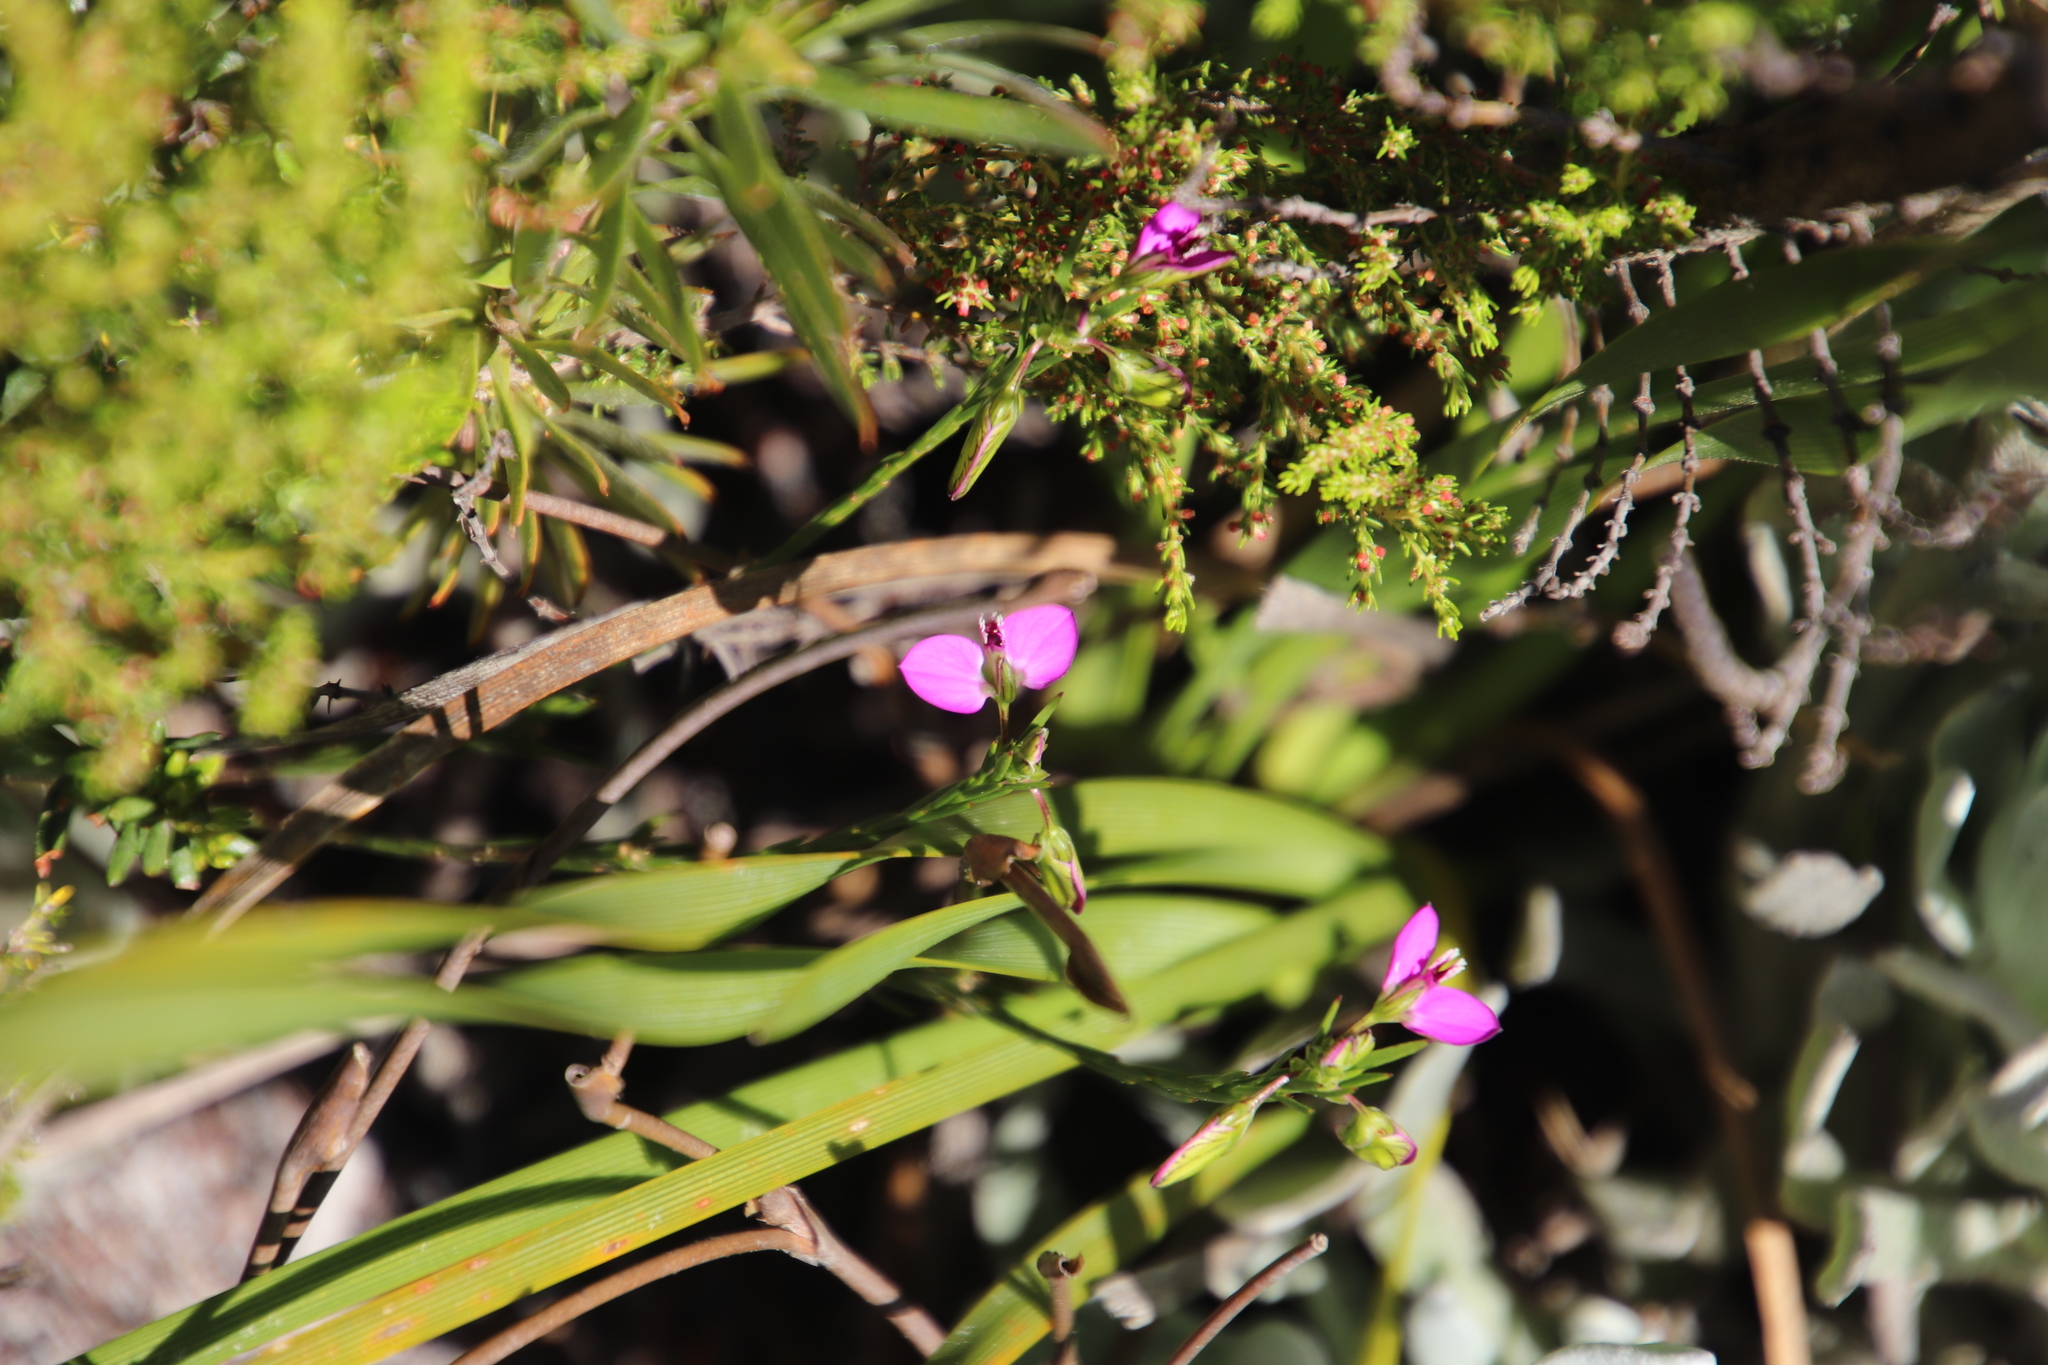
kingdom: Plantae
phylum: Tracheophyta
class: Magnoliopsida
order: Fabales
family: Polygalaceae
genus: Polygala
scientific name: Polygala recognita
